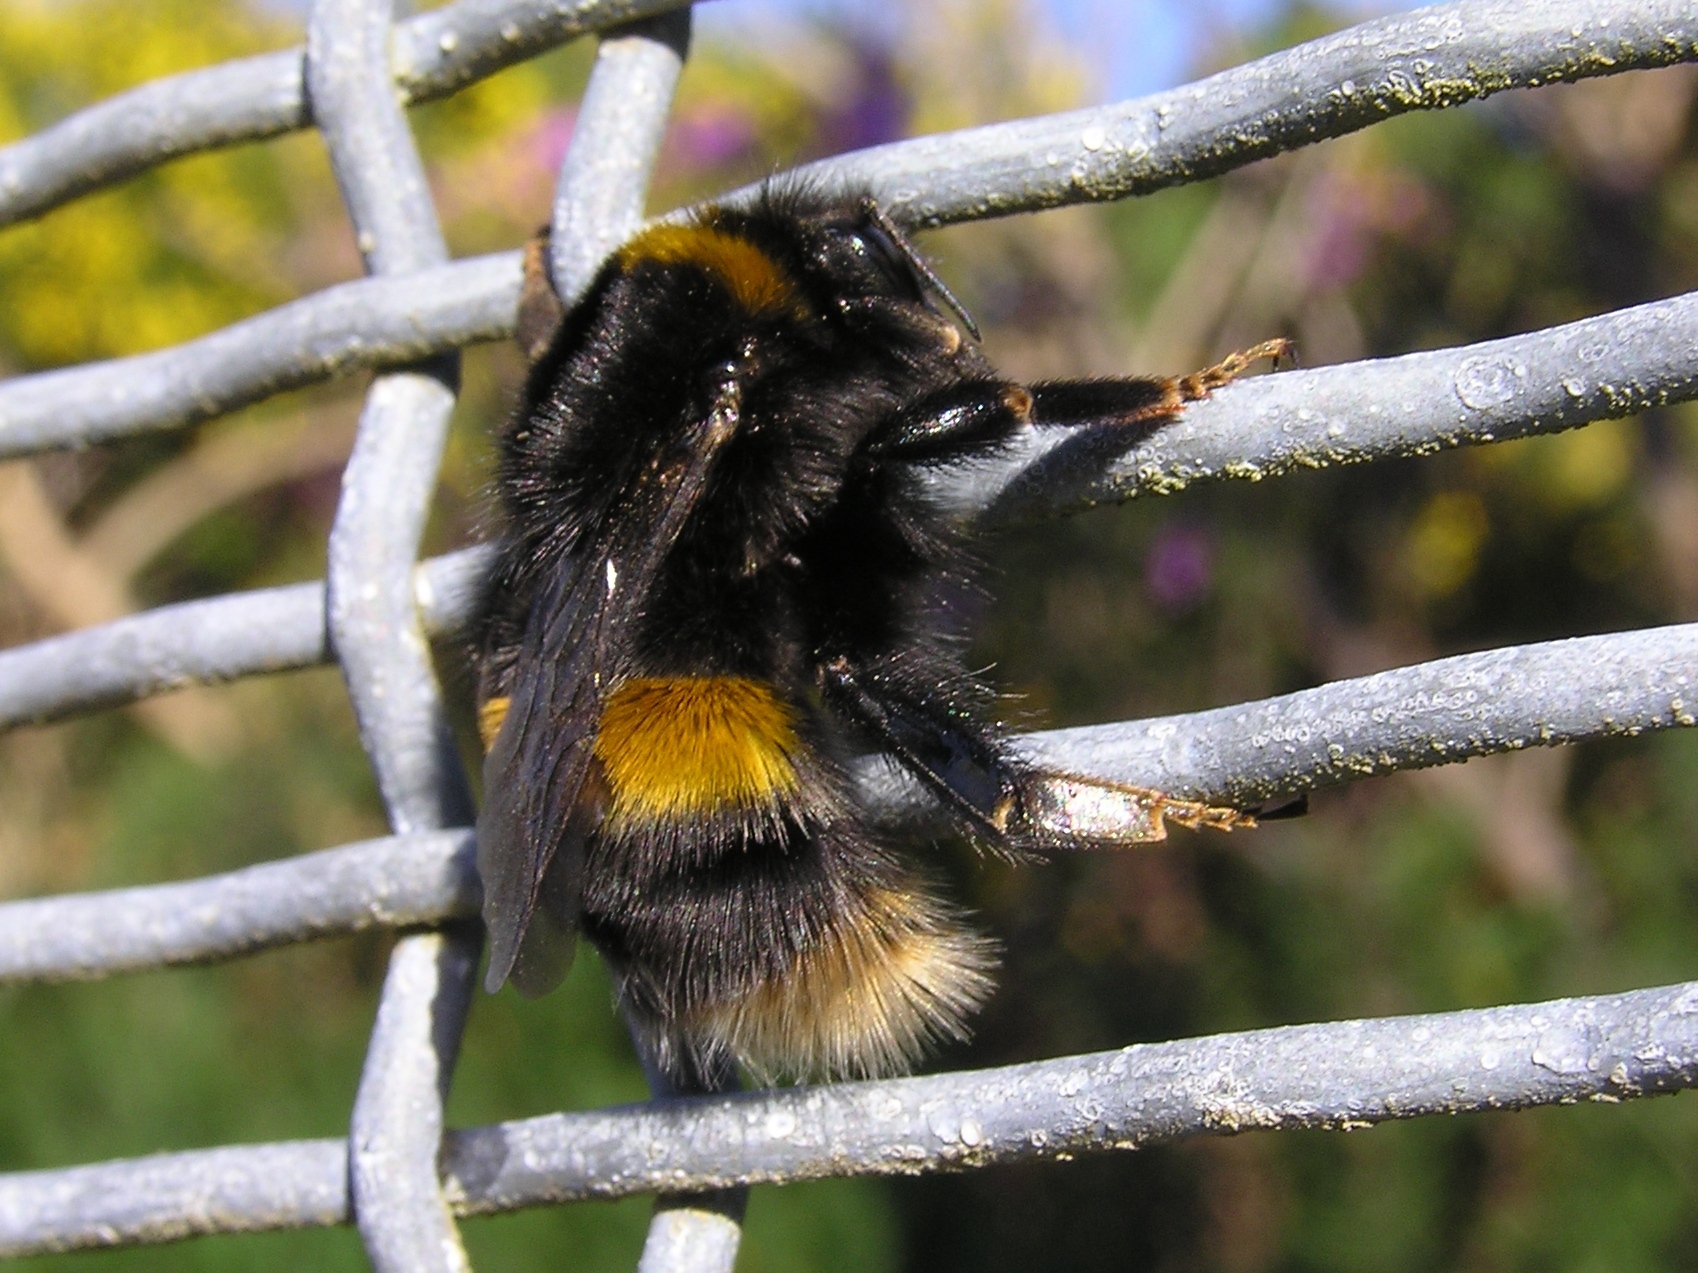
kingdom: Animalia
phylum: Arthropoda
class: Insecta
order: Hymenoptera
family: Apidae
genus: Bombus
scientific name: Bombus terrestris
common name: Buff-tailed bumblebee
